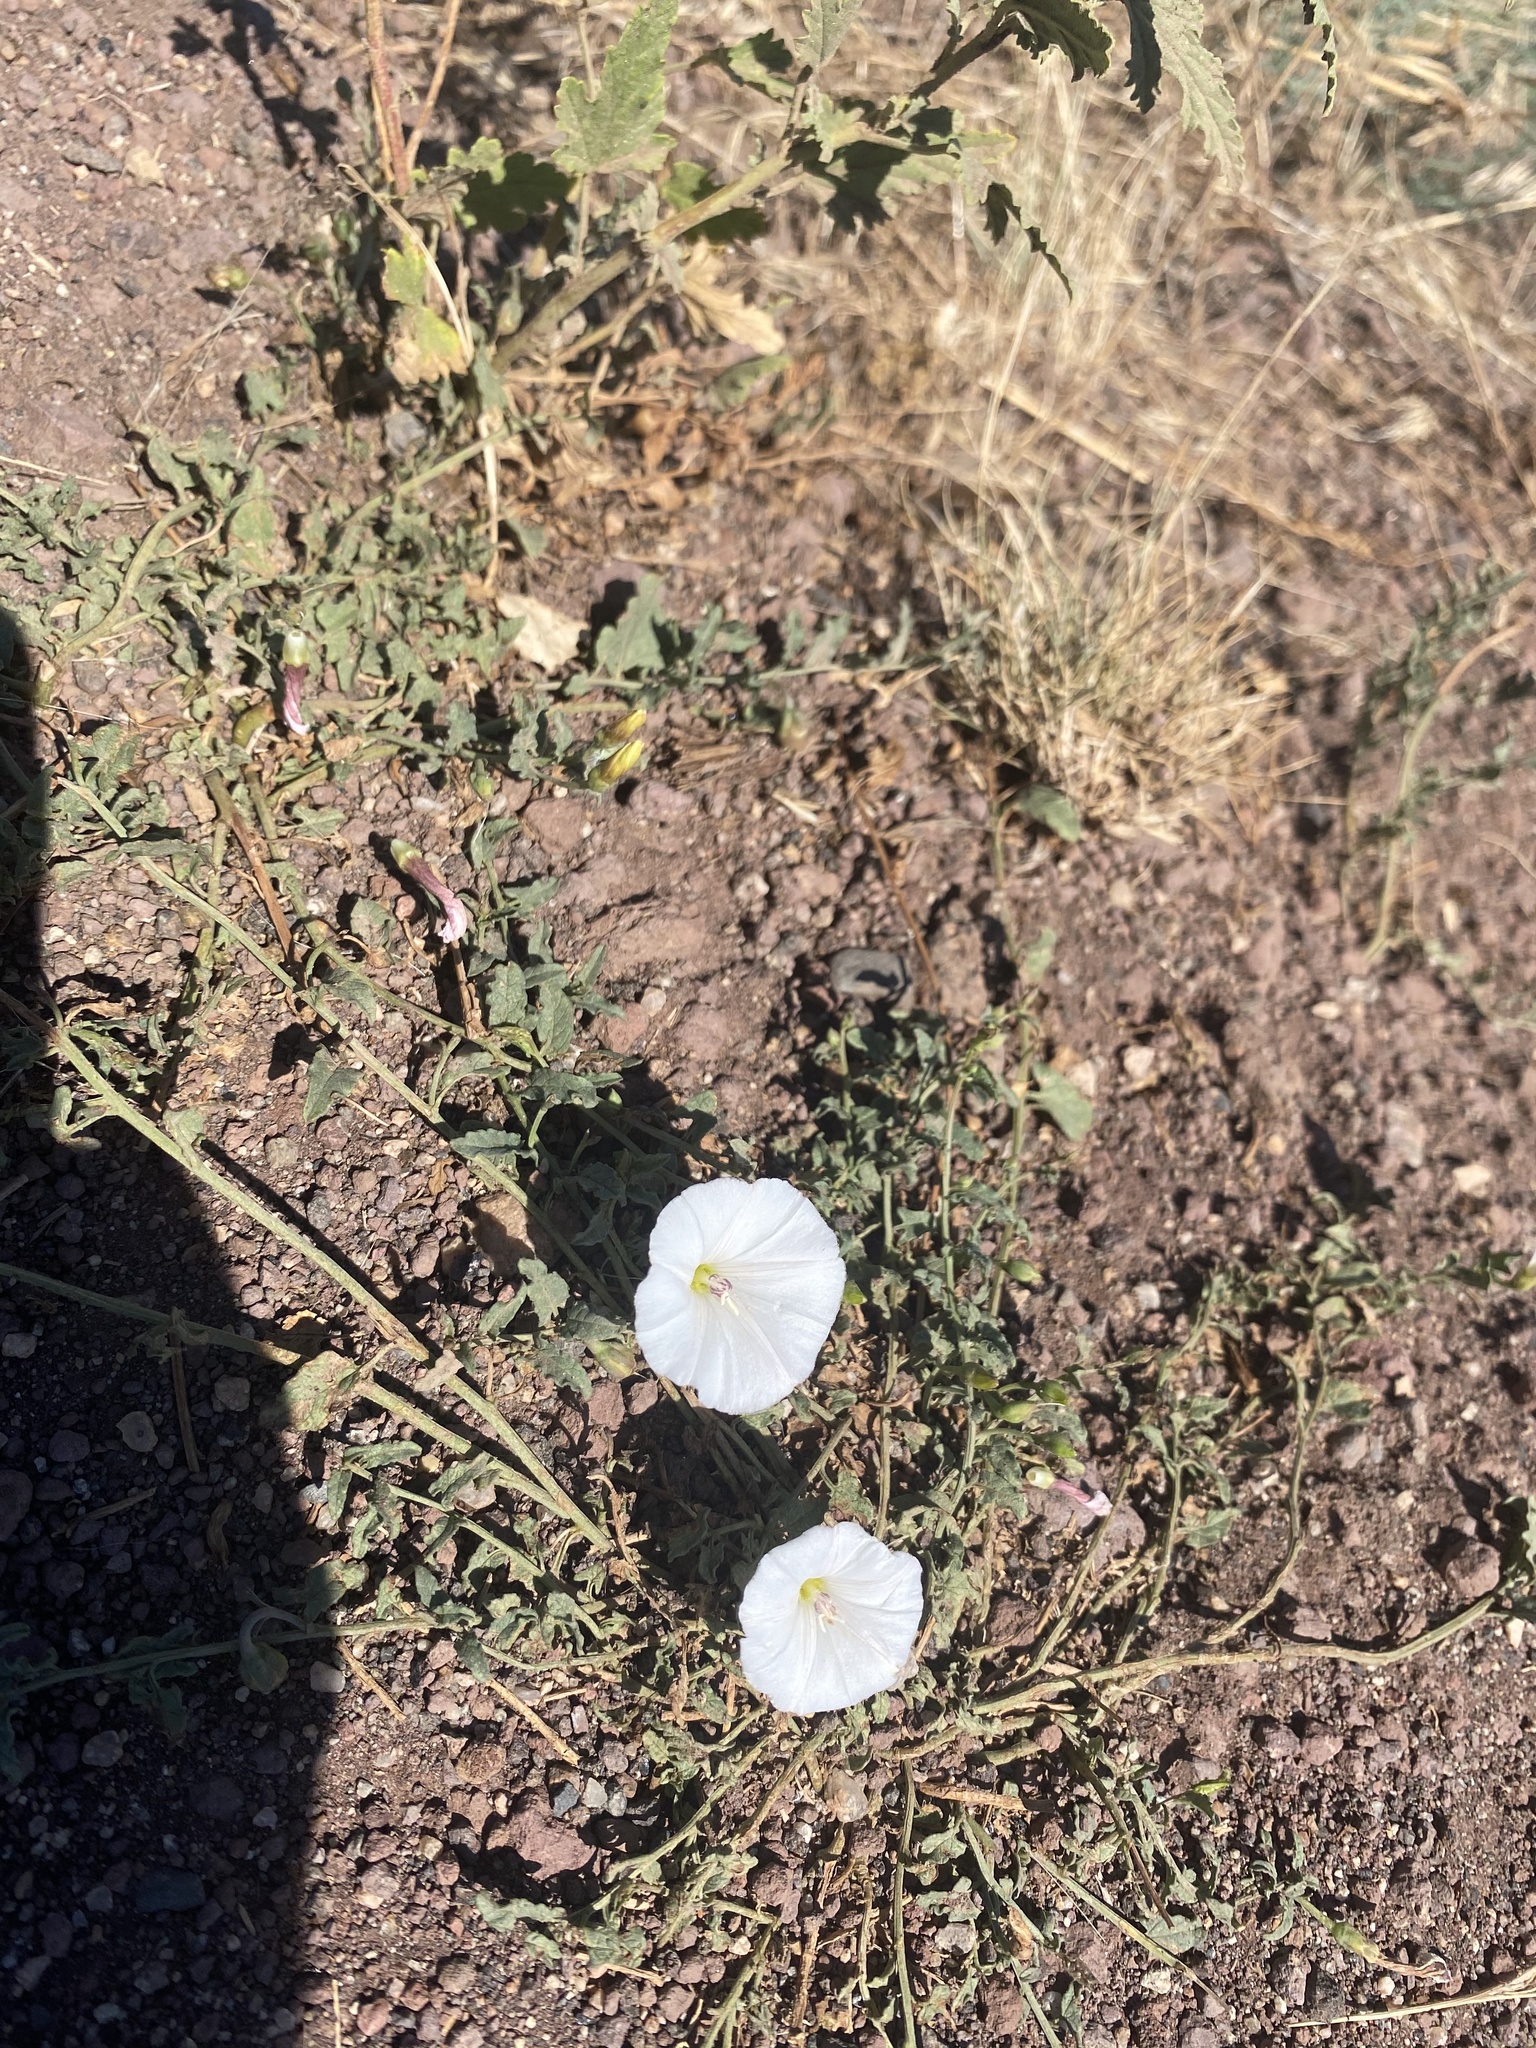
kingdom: Plantae
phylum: Tracheophyta
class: Magnoliopsida
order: Solanales
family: Convolvulaceae
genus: Convolvulus
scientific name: Convolvulus arvensis
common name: Field bindweed
